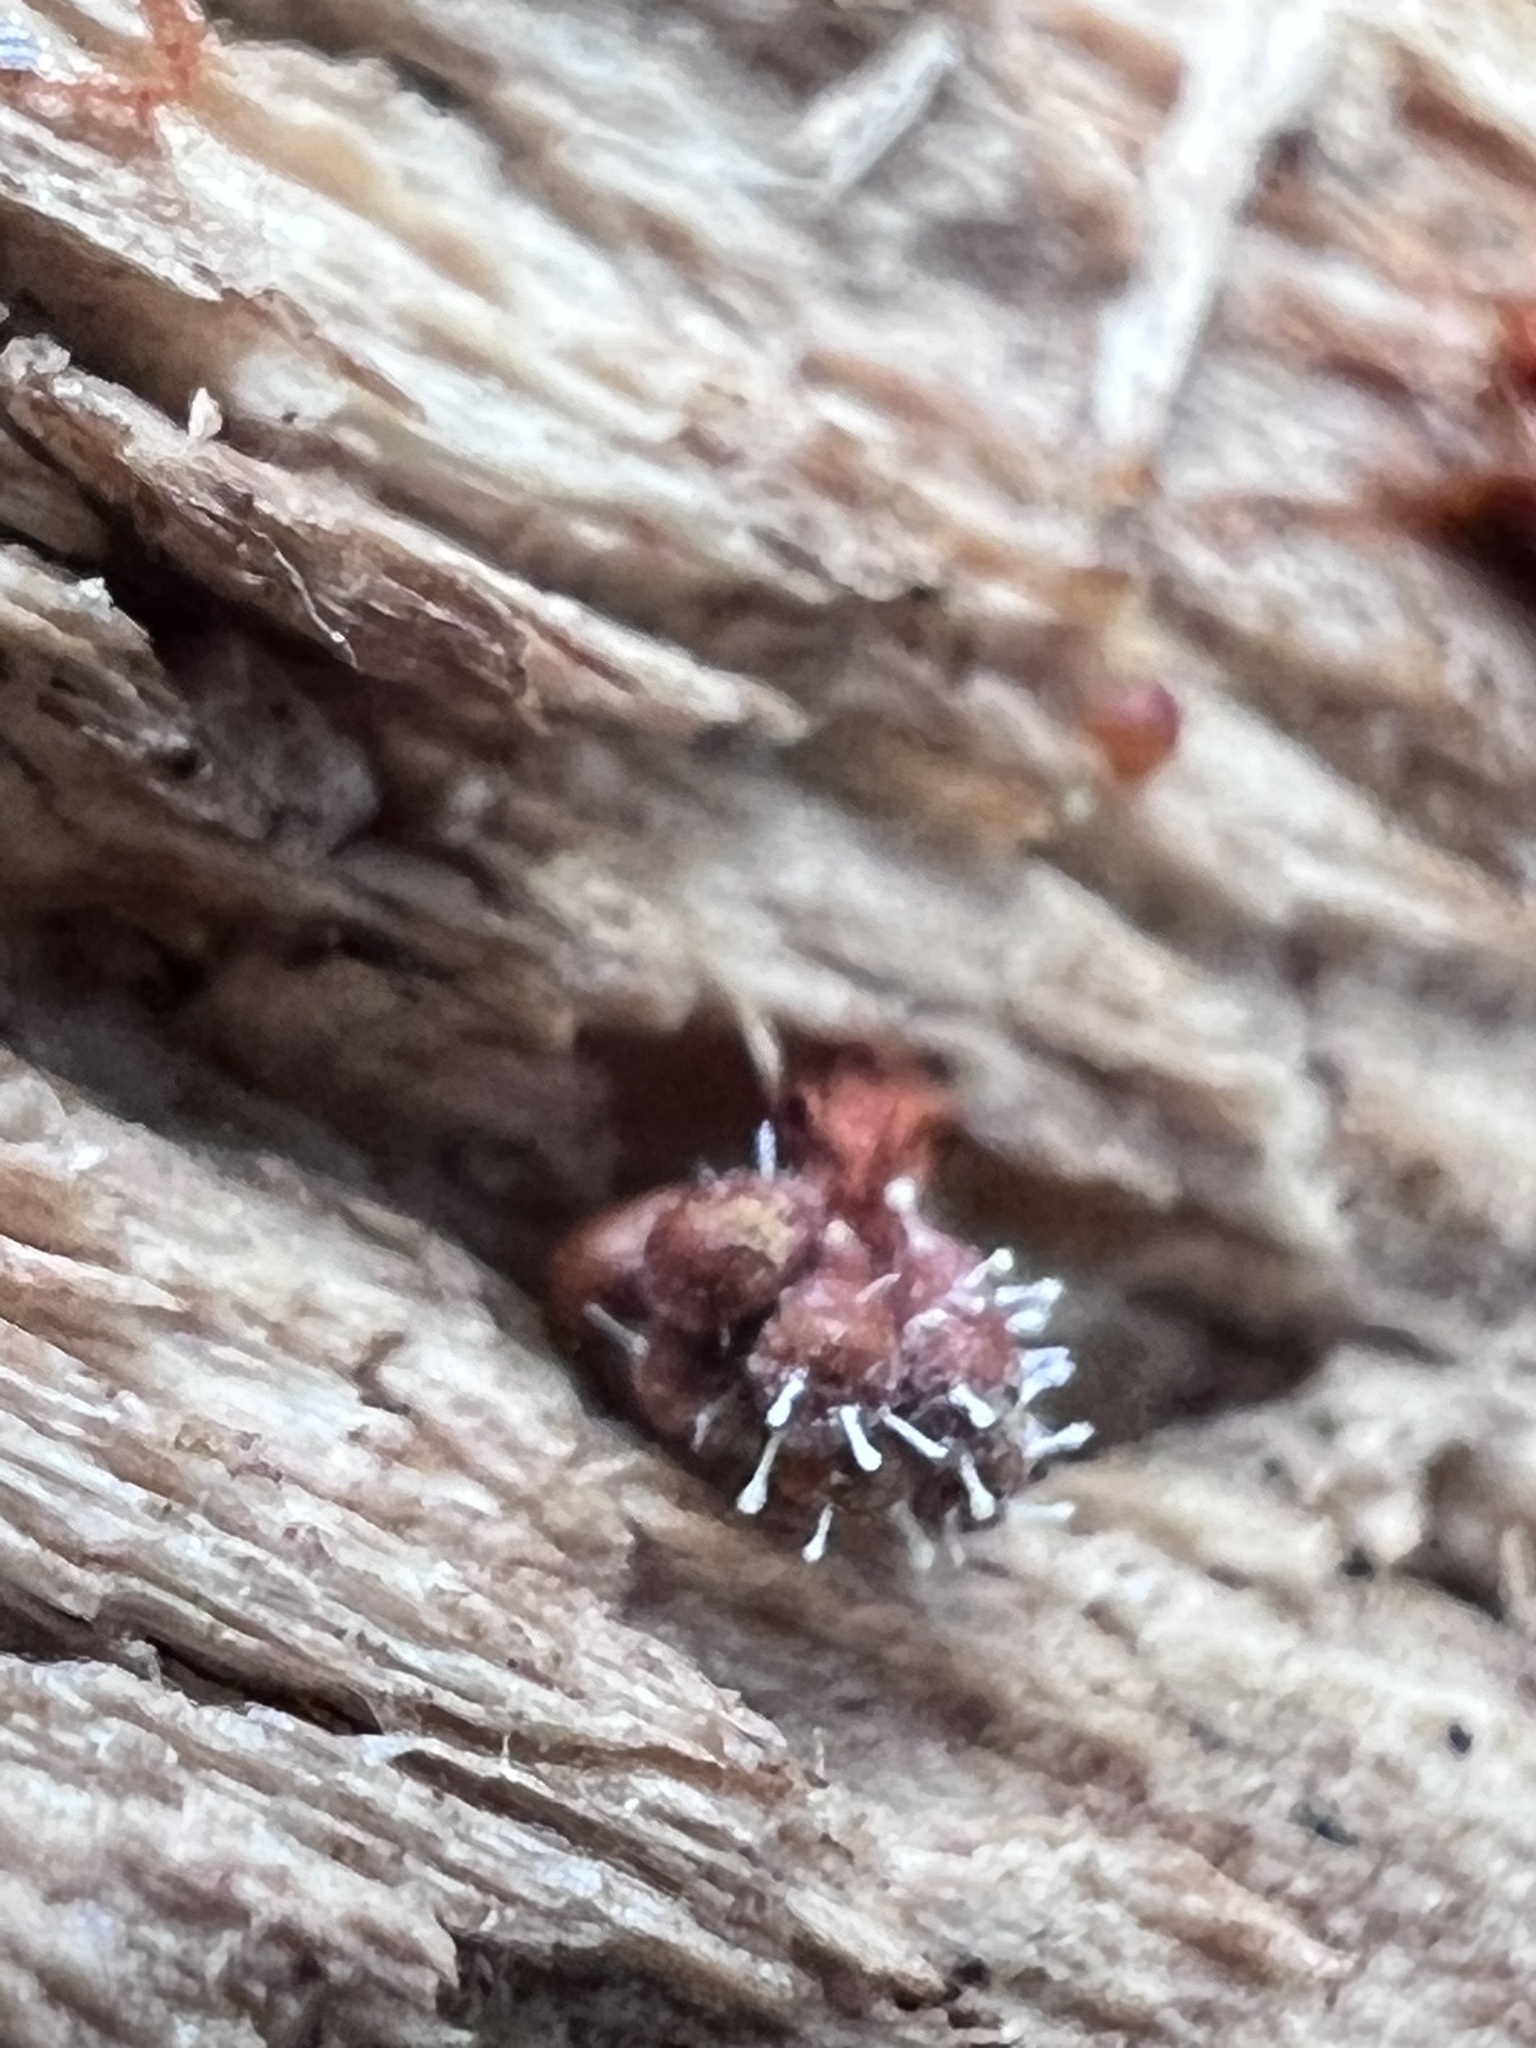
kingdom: Fungi
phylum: Ascomycota
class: Sordariomycetes
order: Hypocreales
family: Ophiocordycipitaceae
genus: Polycephalomyces
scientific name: Polycephalomyces tomentosus
